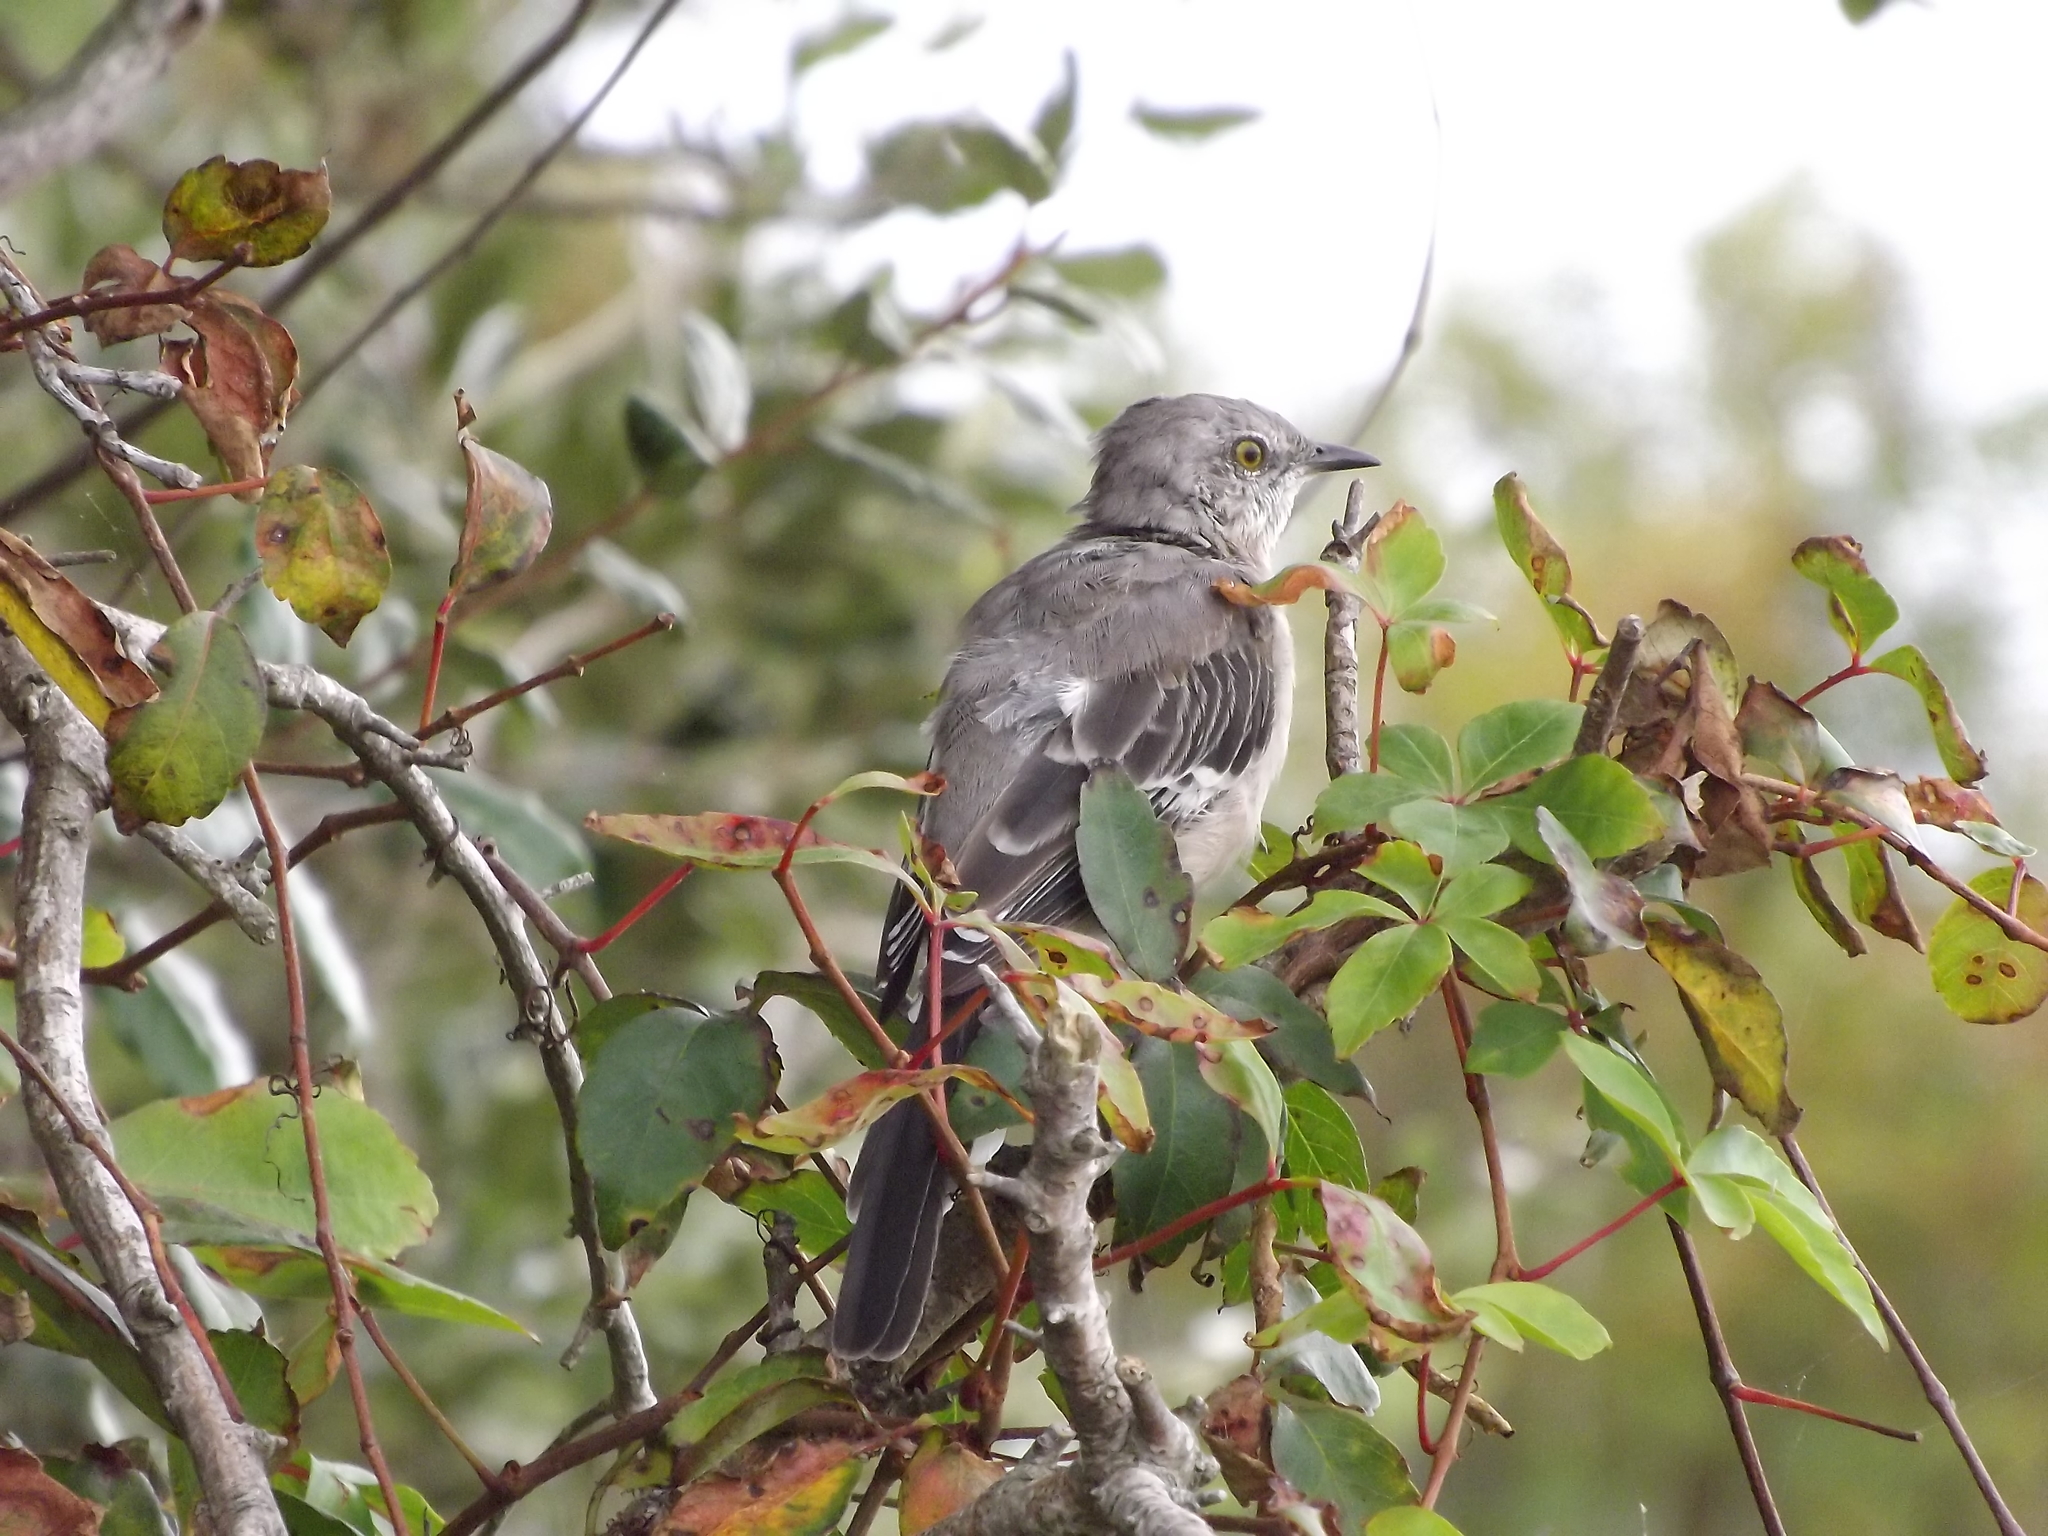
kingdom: Animalia
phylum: Chordata
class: Aves
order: Passeriformes
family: Mimidae
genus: Mimus
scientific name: Mimus polyglottos
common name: Northern mockingbird
